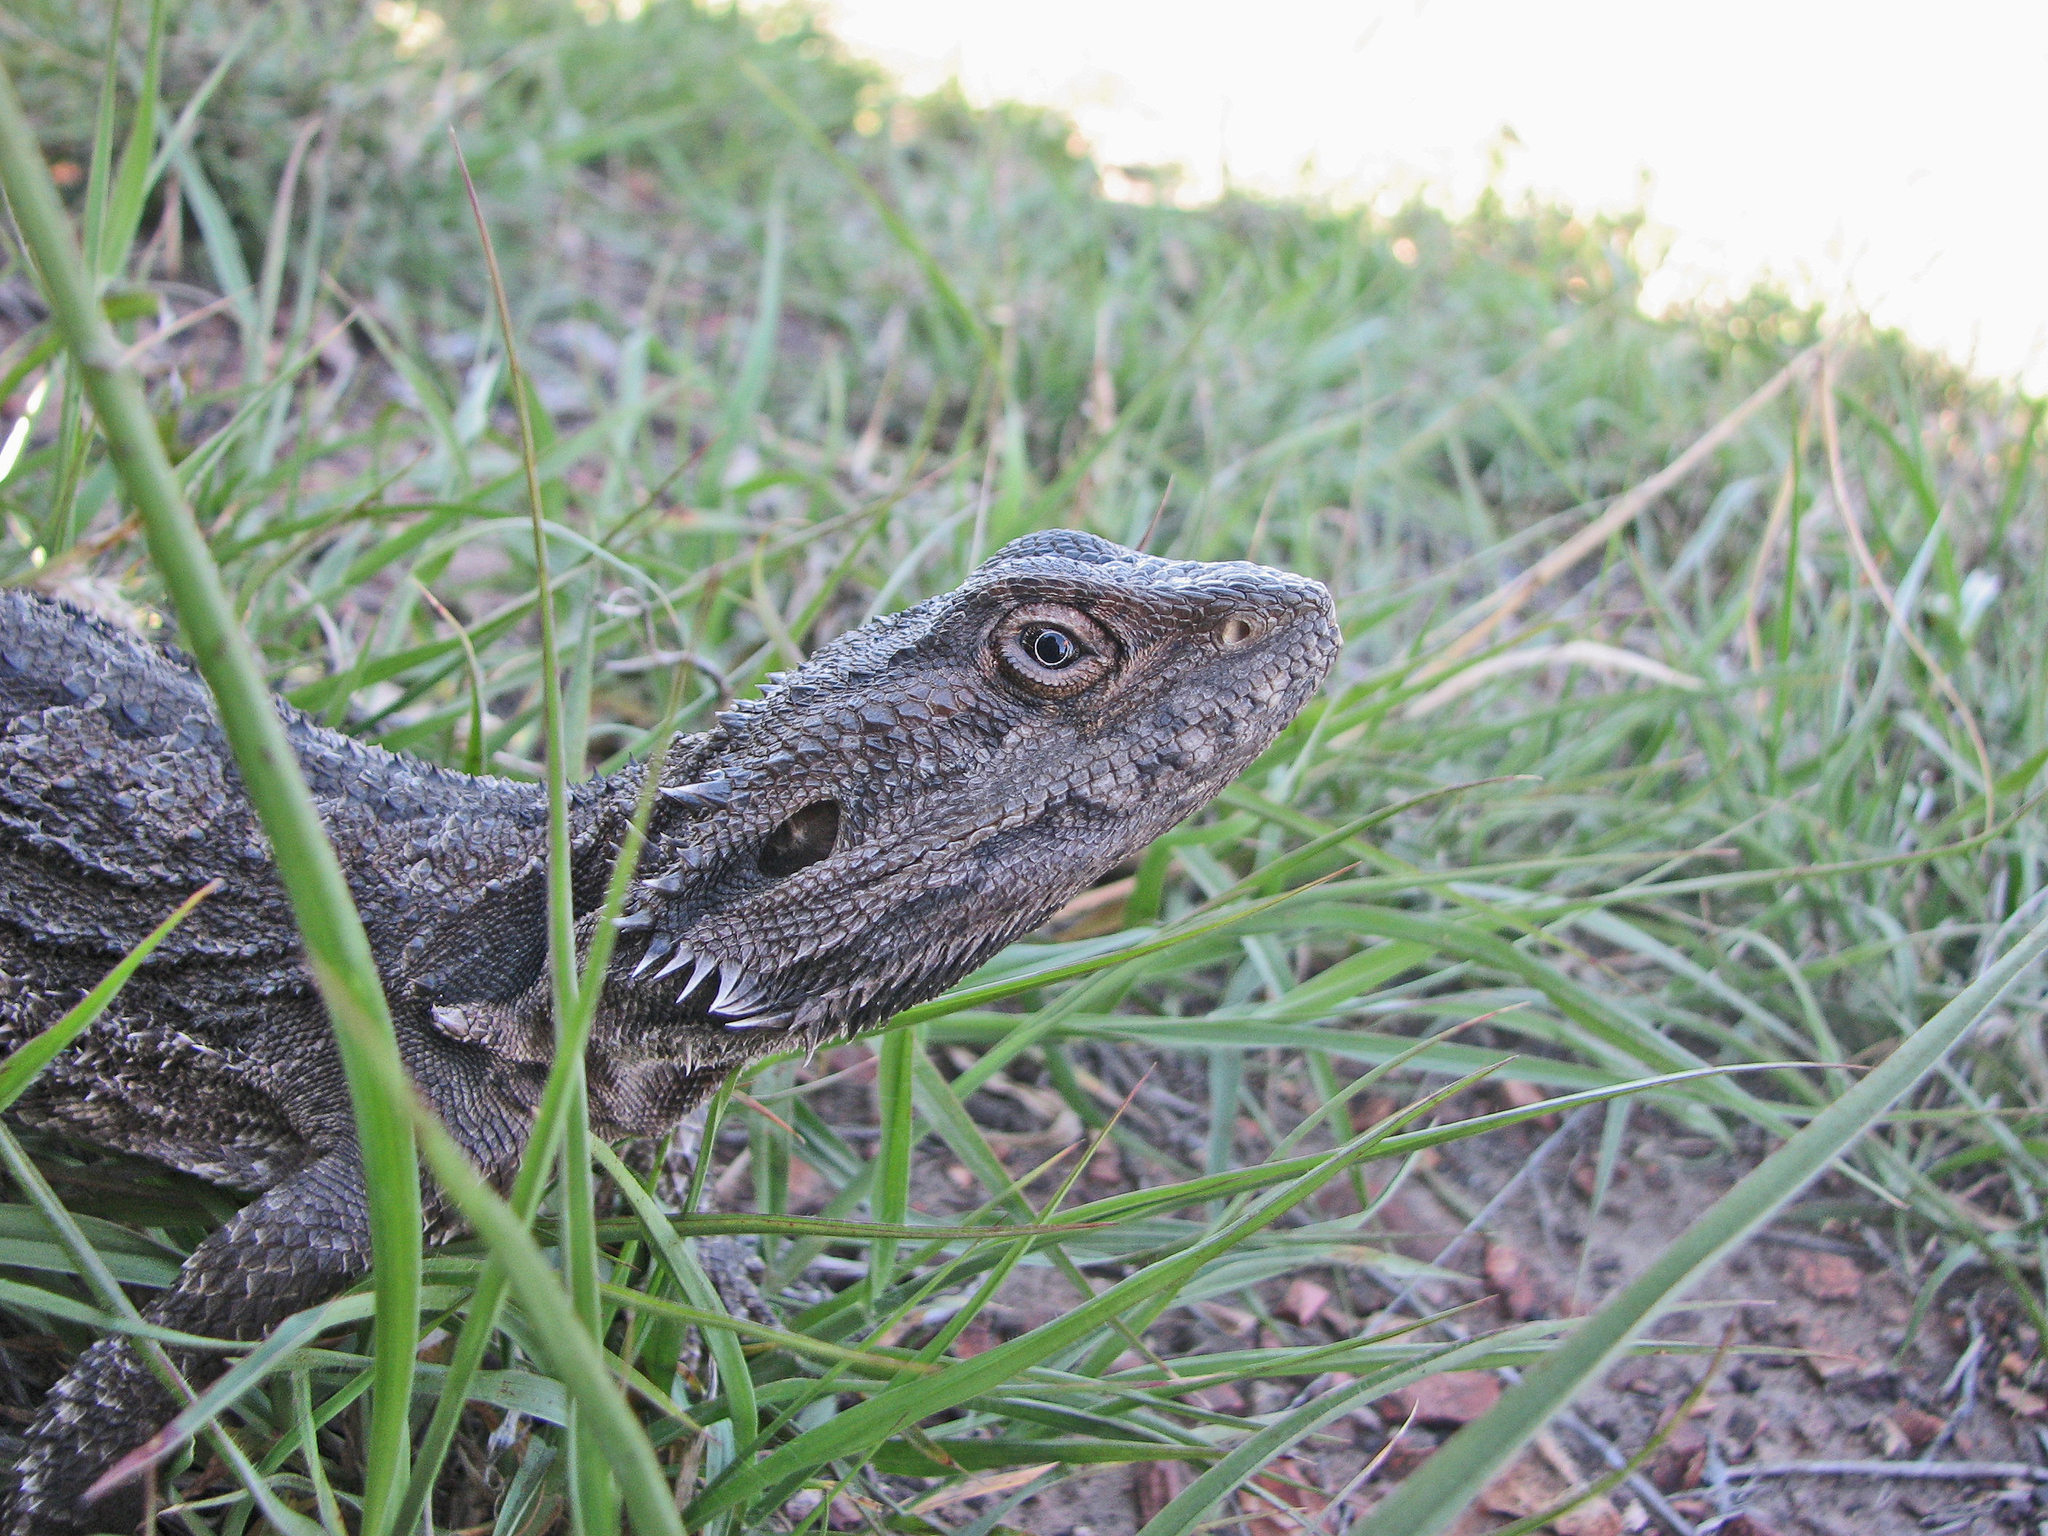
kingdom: Animalia
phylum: Chordata
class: Squamata
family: Agamidae
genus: Pogona
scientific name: Pogona barbata
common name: Bearded dragon
